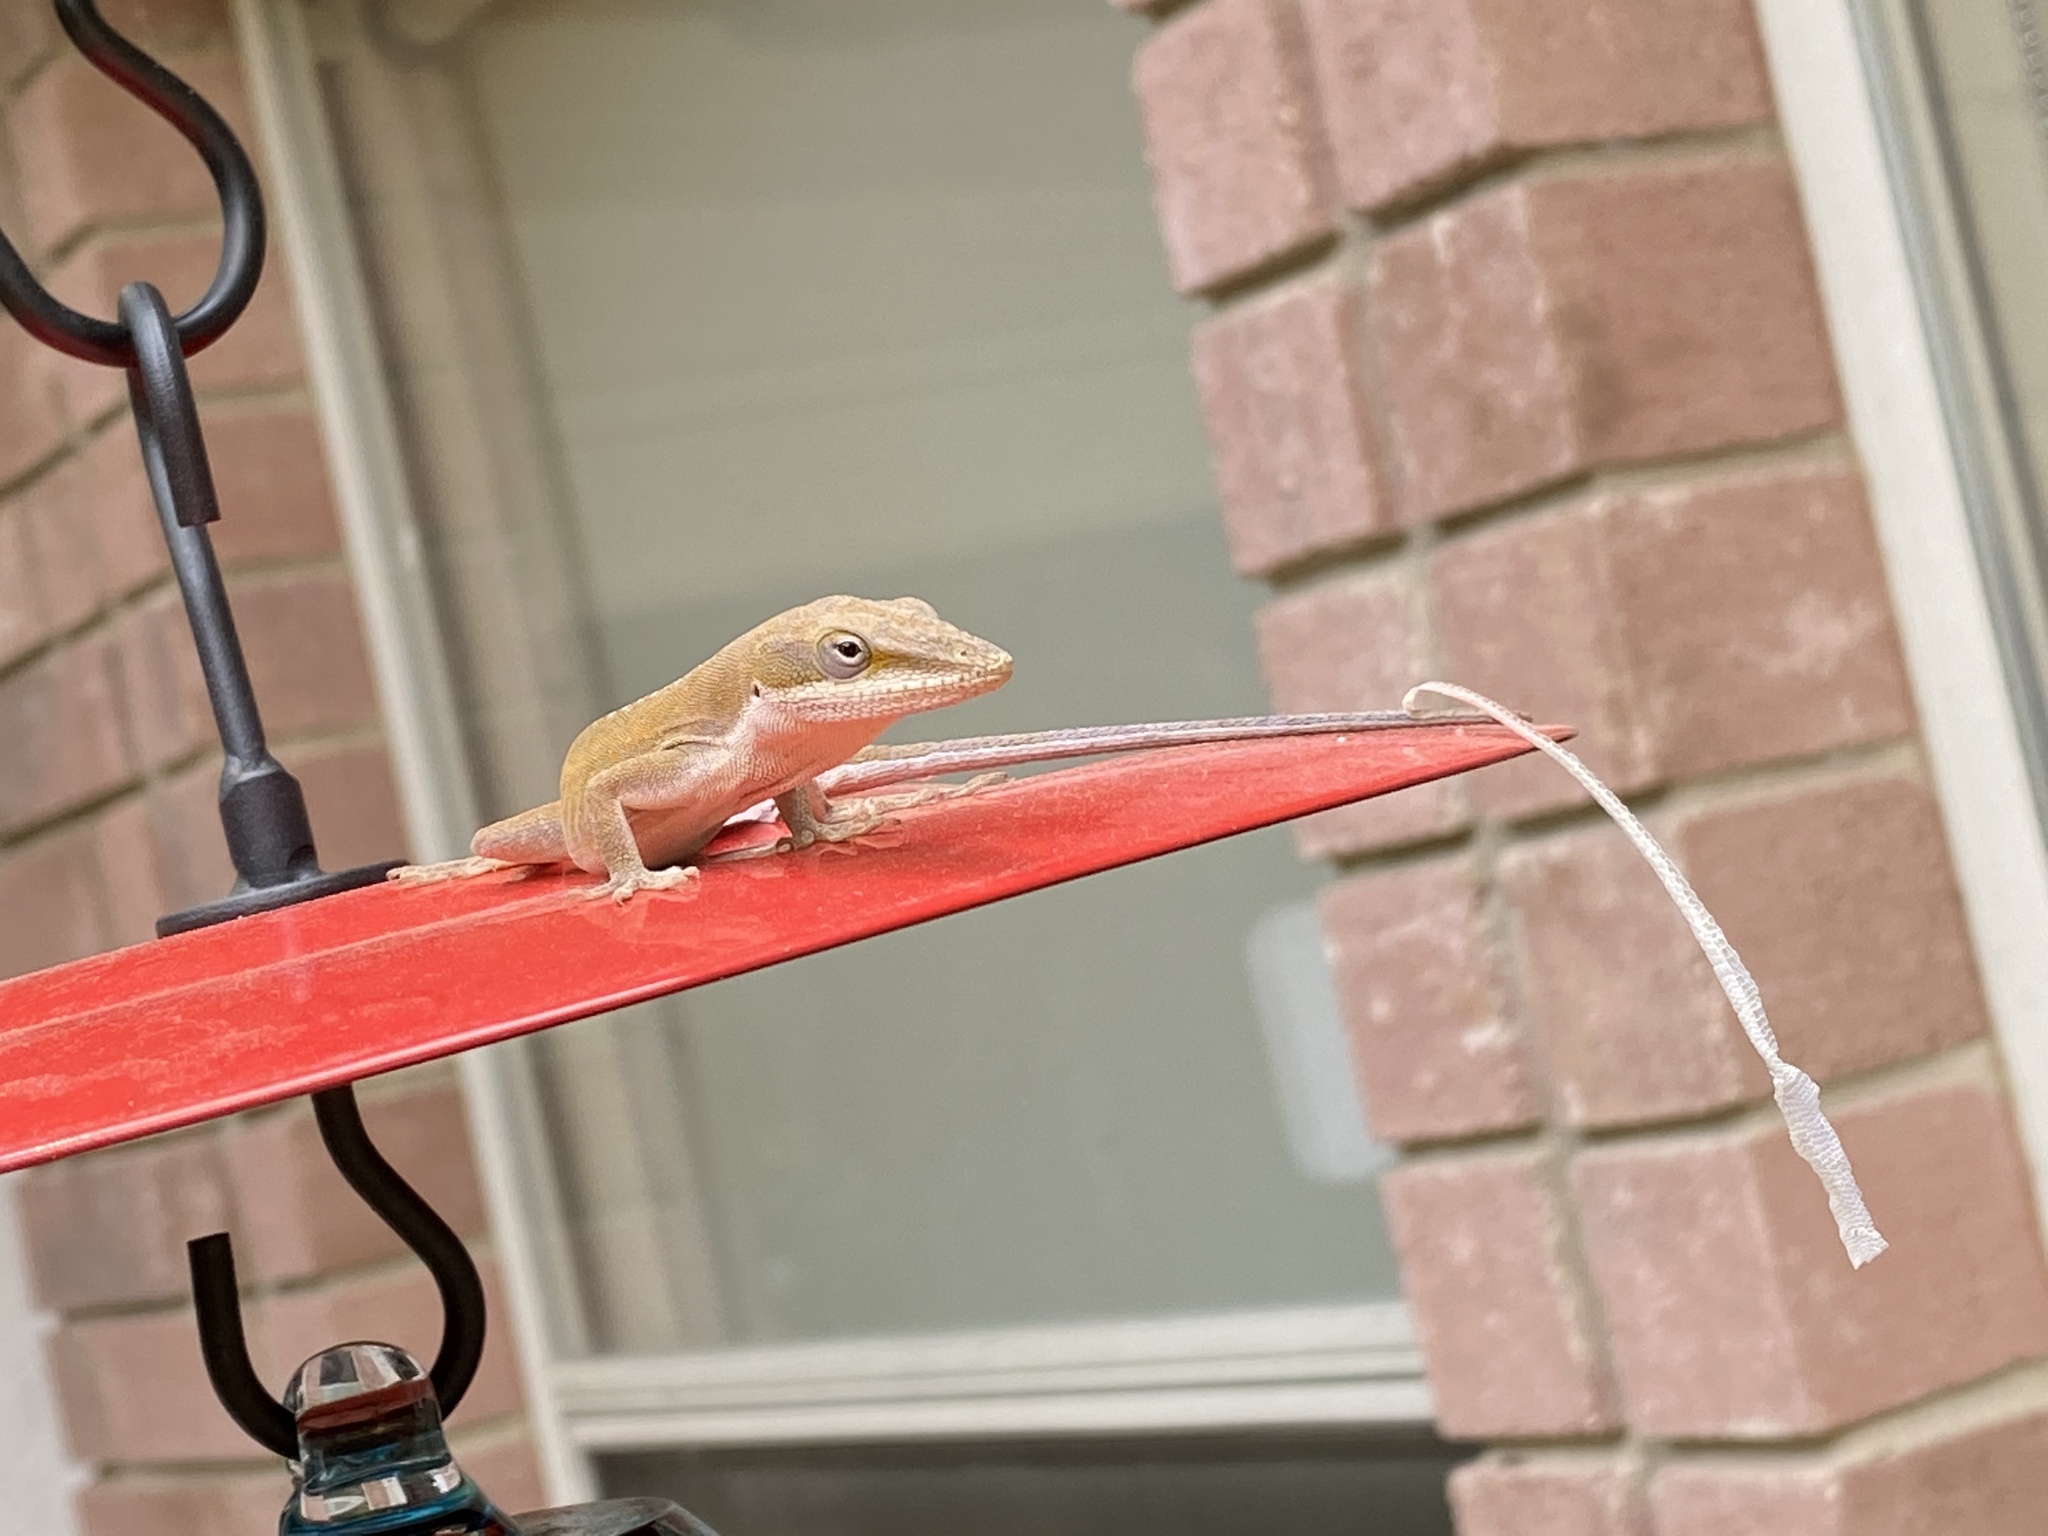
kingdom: Animalia
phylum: Chordata
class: Squamata
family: Dactyloidae
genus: Anolis
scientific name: Anolis carolinensis
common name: Green anole
